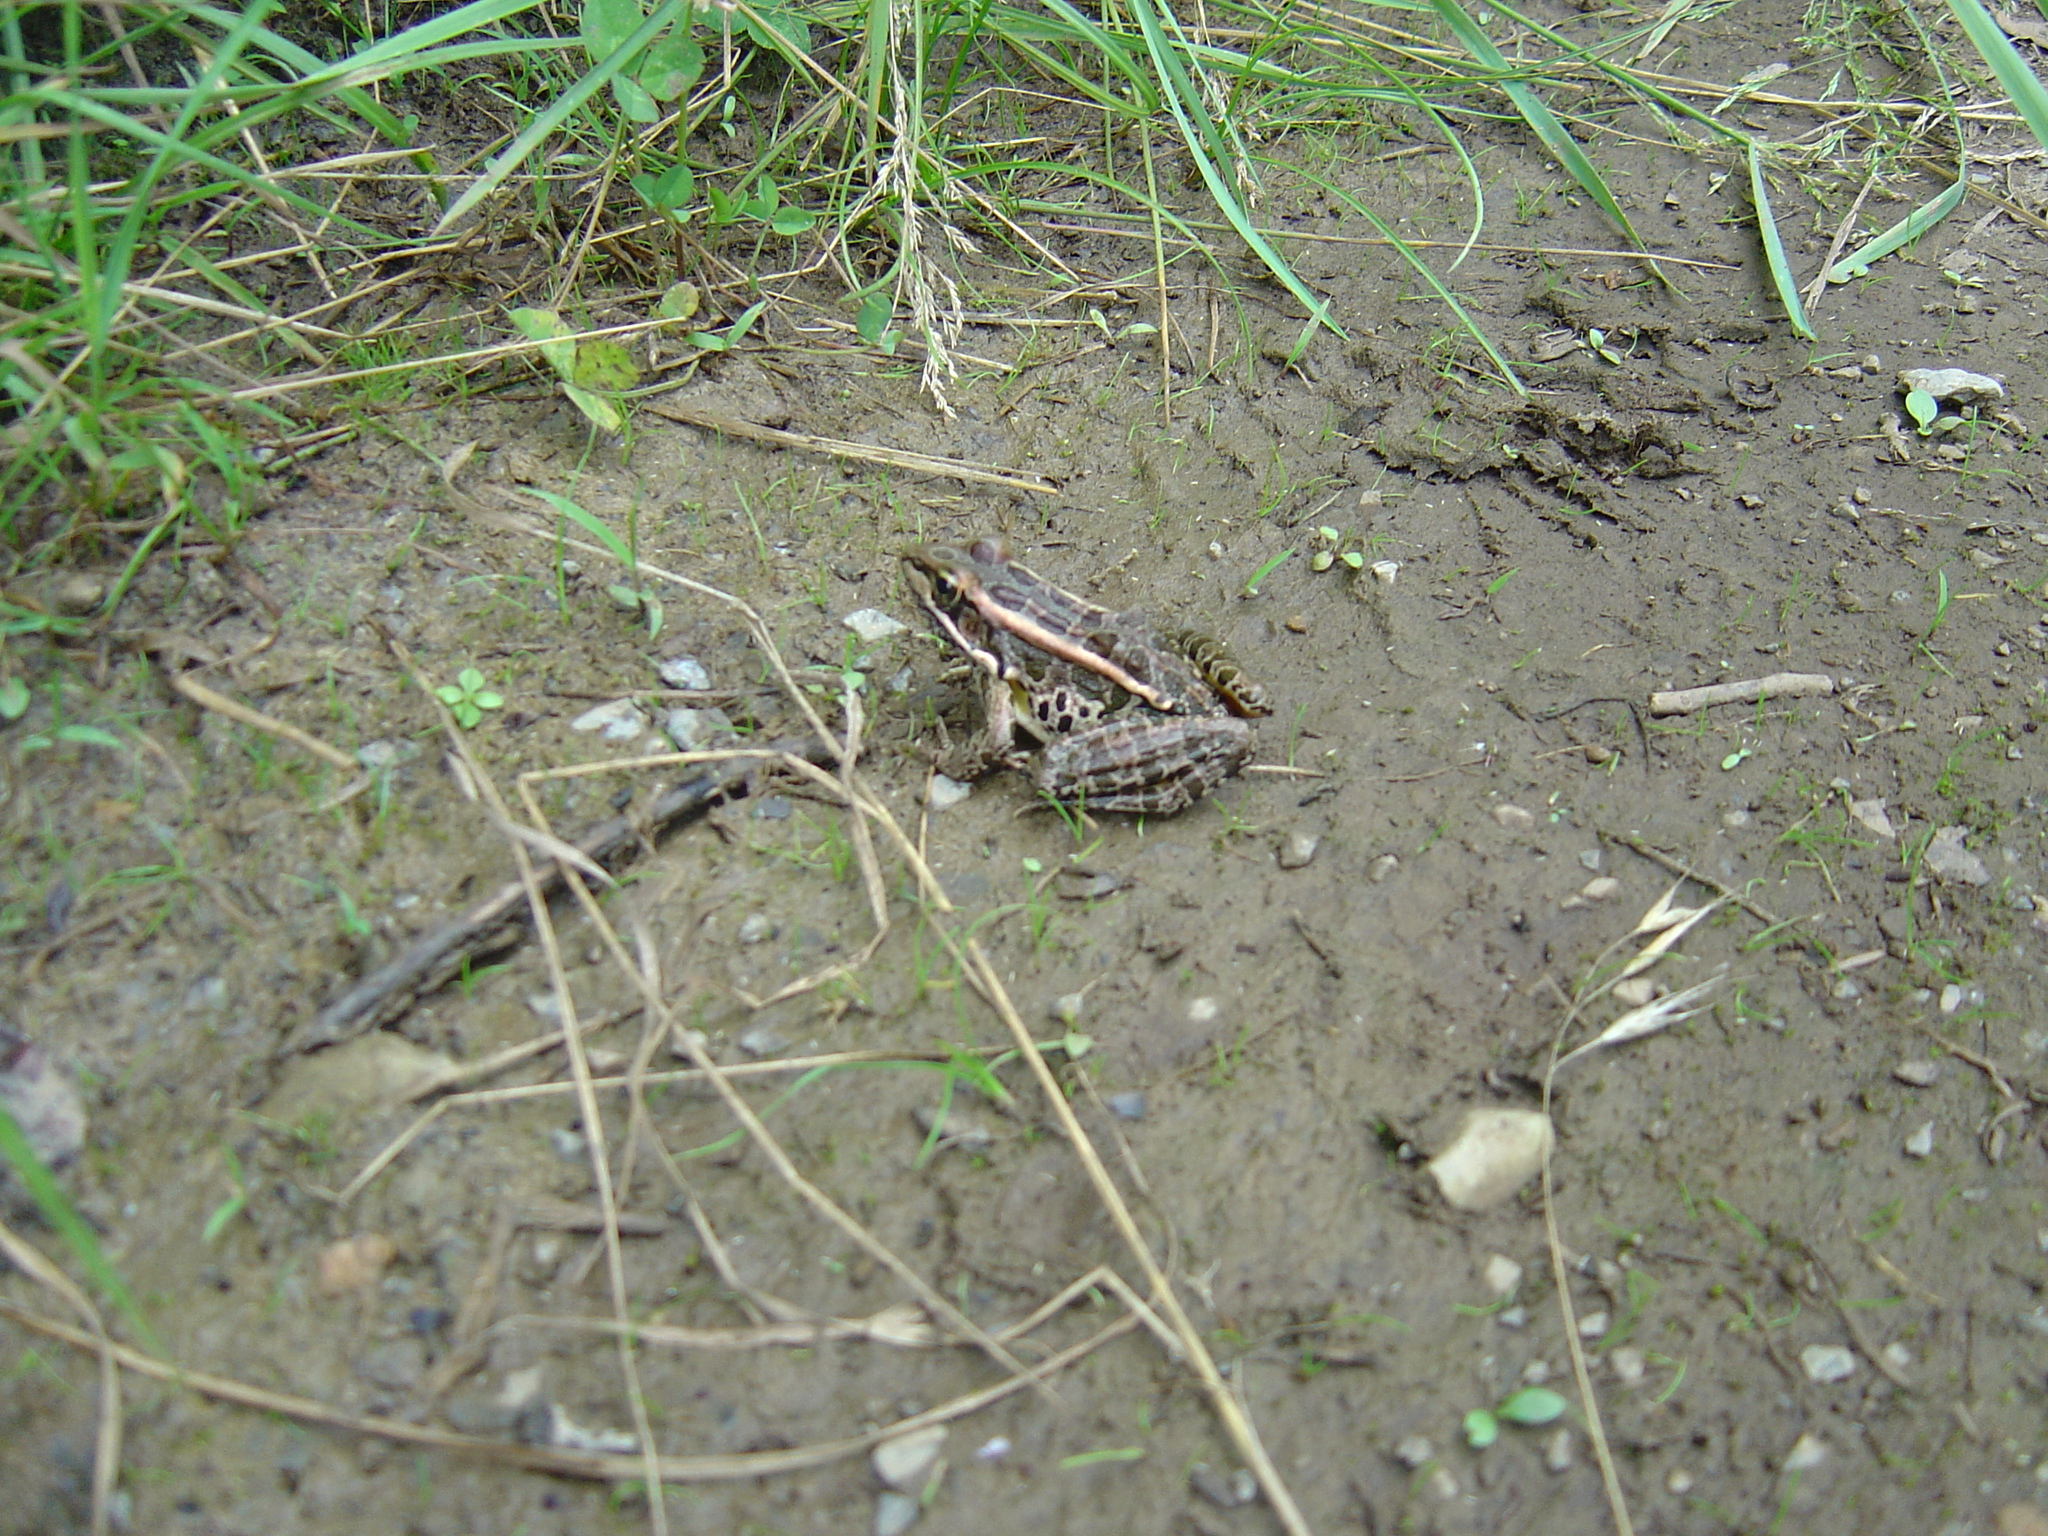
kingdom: Animalia
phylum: Chordata
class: Amphibia
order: Anura
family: Ranidae
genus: Lithobates
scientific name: Lithobates palustris
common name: Pickerel frog
